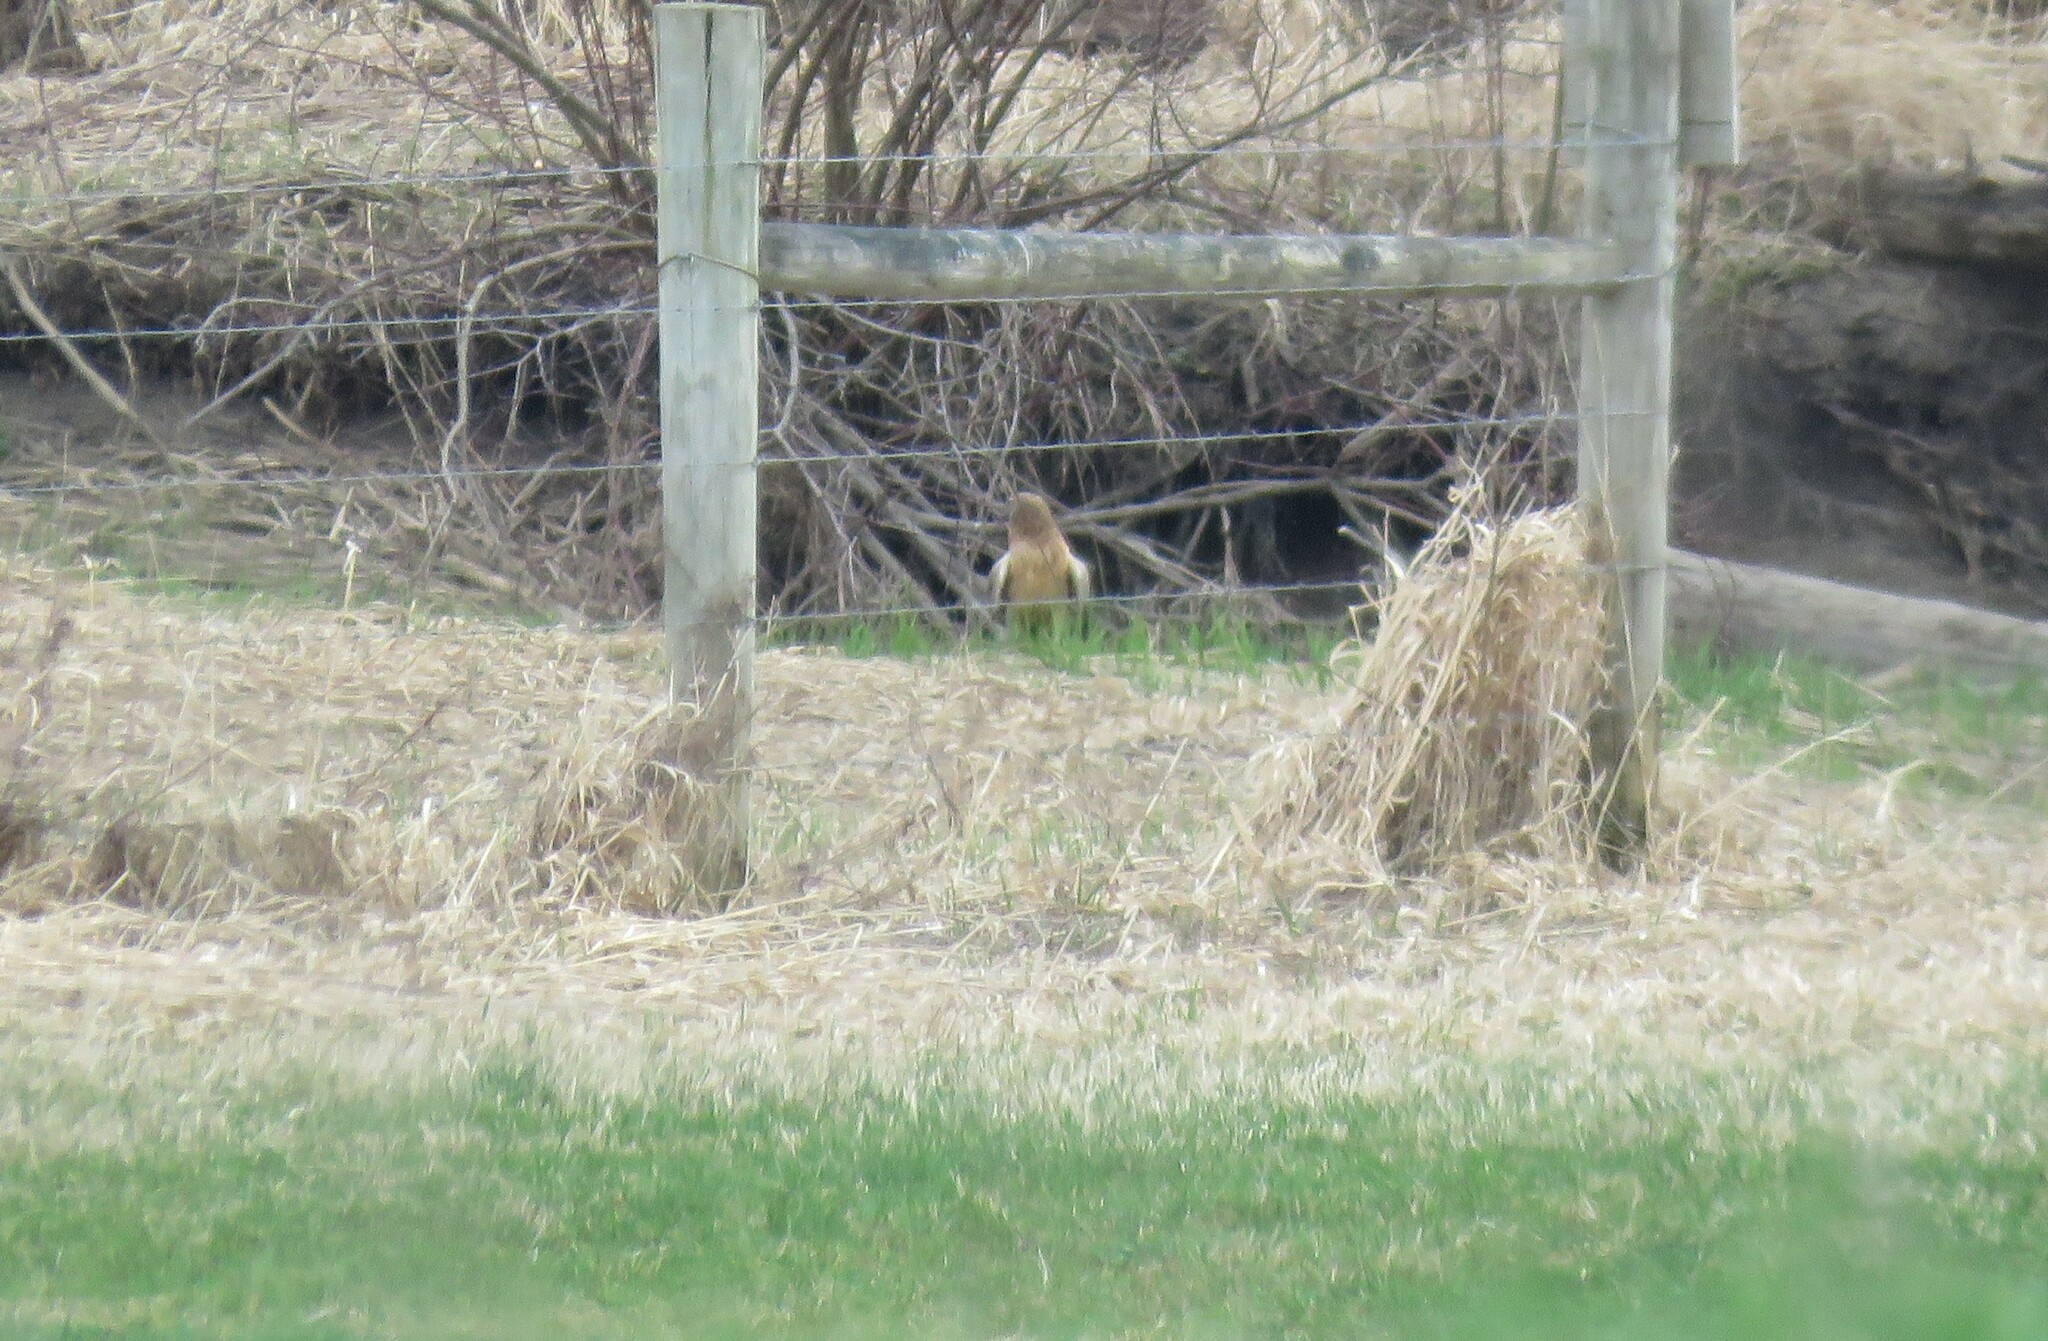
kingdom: Animalia
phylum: Chordata
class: Aves
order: Accipitriformes
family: Accipitridae
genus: Circus
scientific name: Circus cyaneus
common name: Hen harrier
